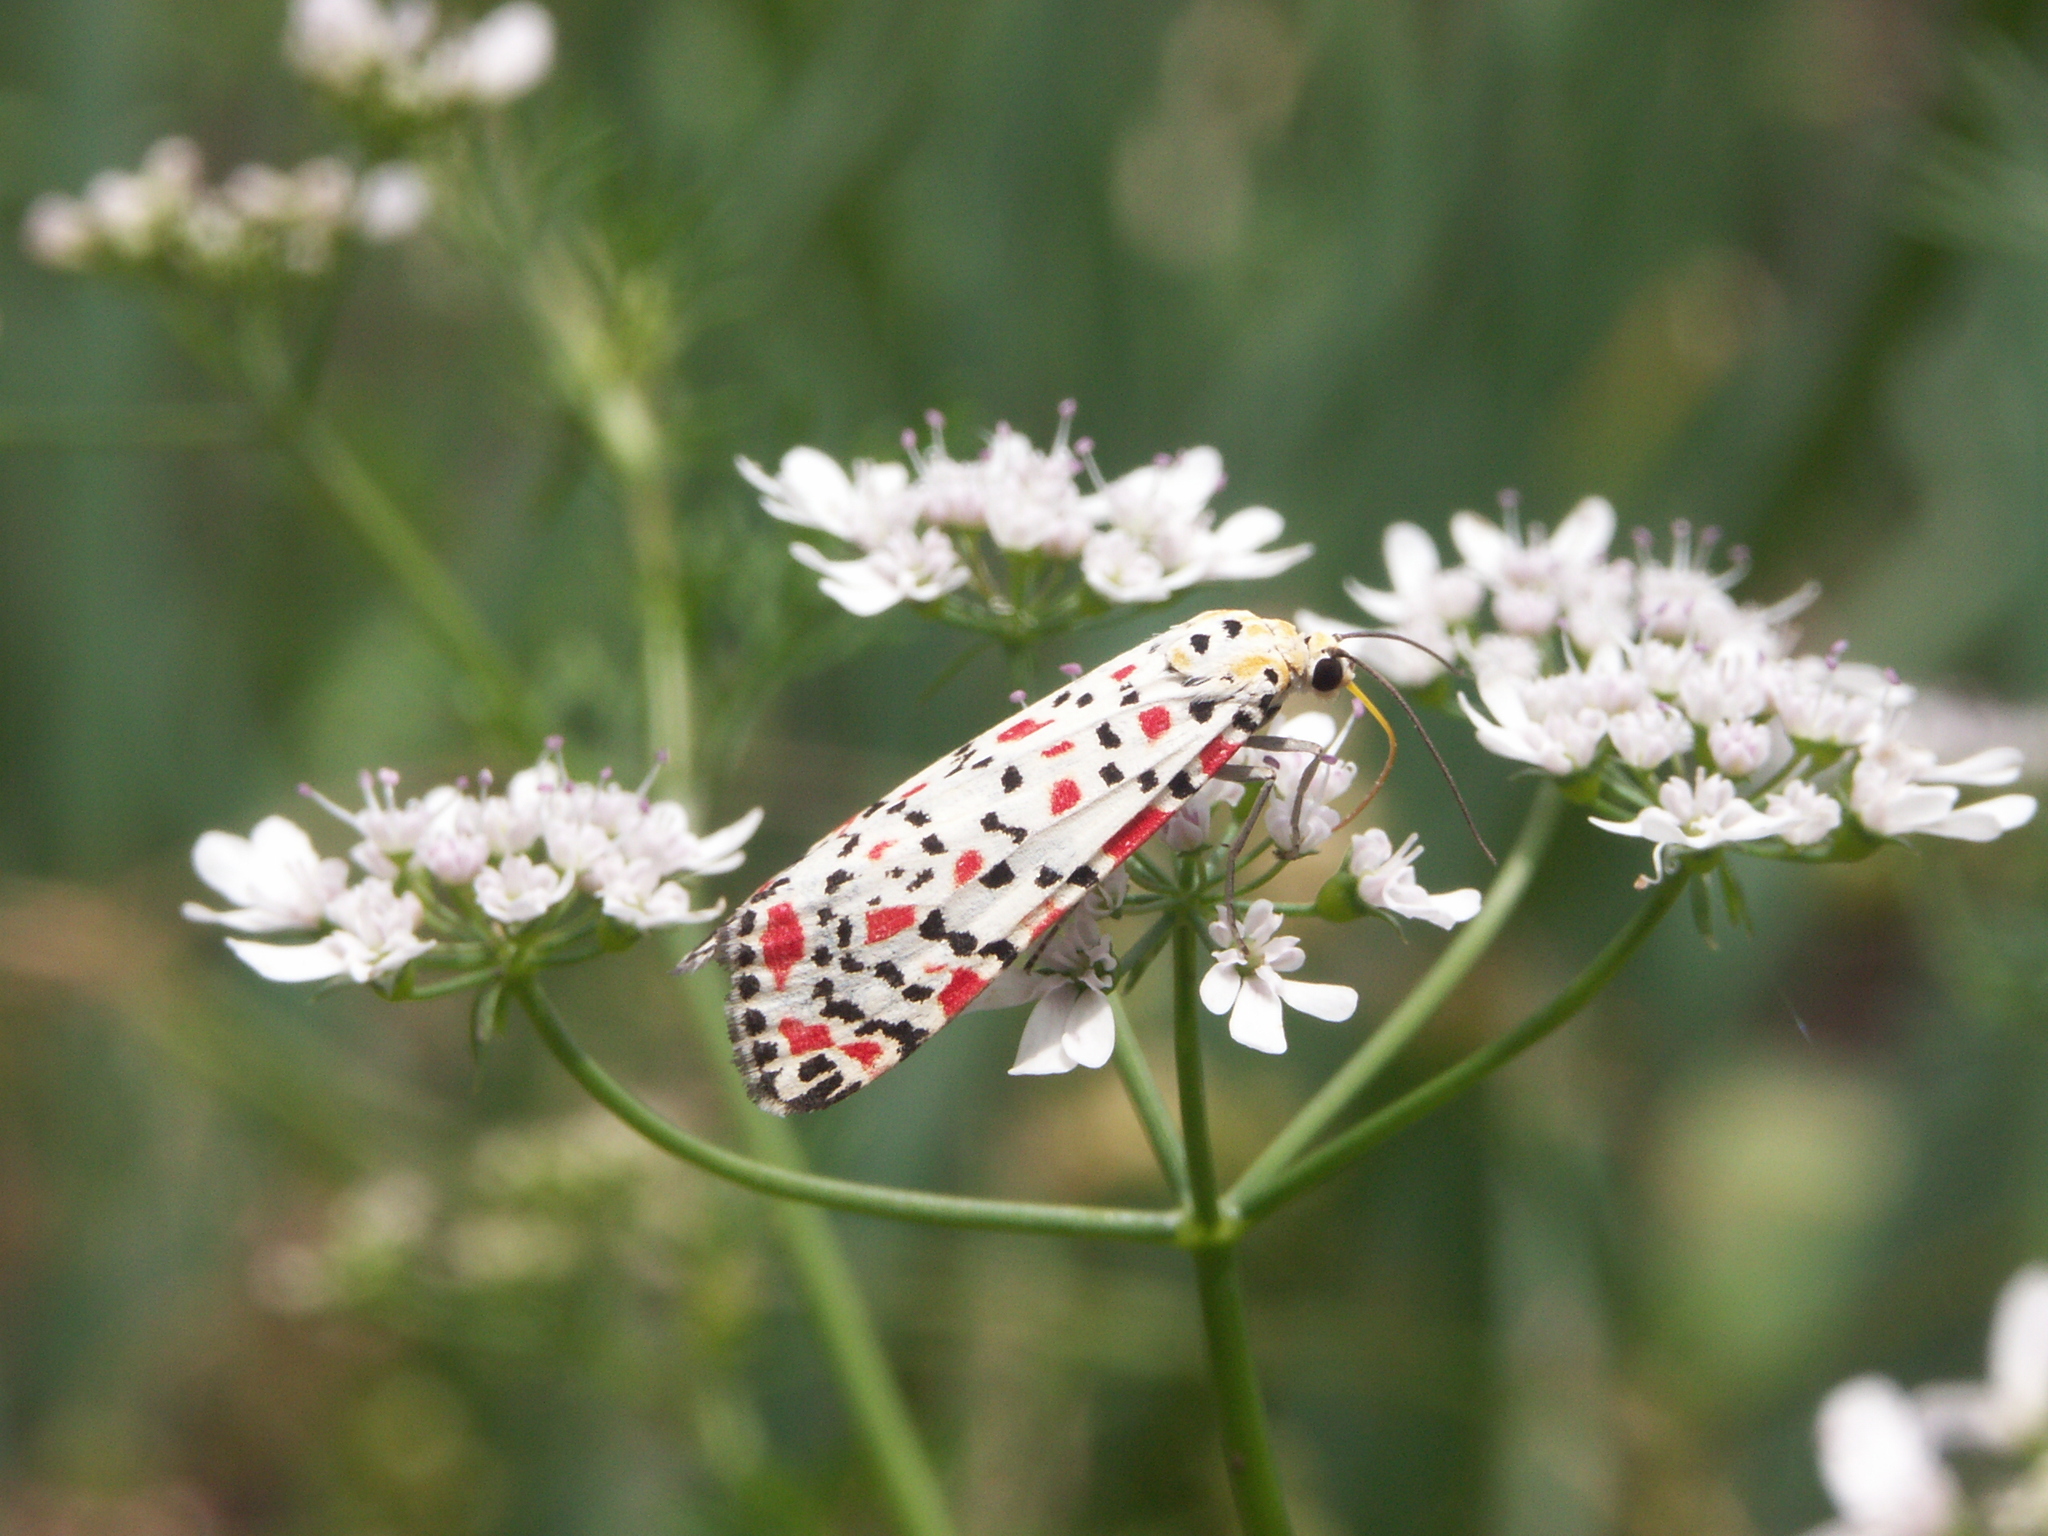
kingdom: Animalia
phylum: Arthropoda
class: Insecta
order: Lepidoptera
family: Erebidae
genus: Utetheisa
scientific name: Utetheisa pulchella
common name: Crimson speckled
